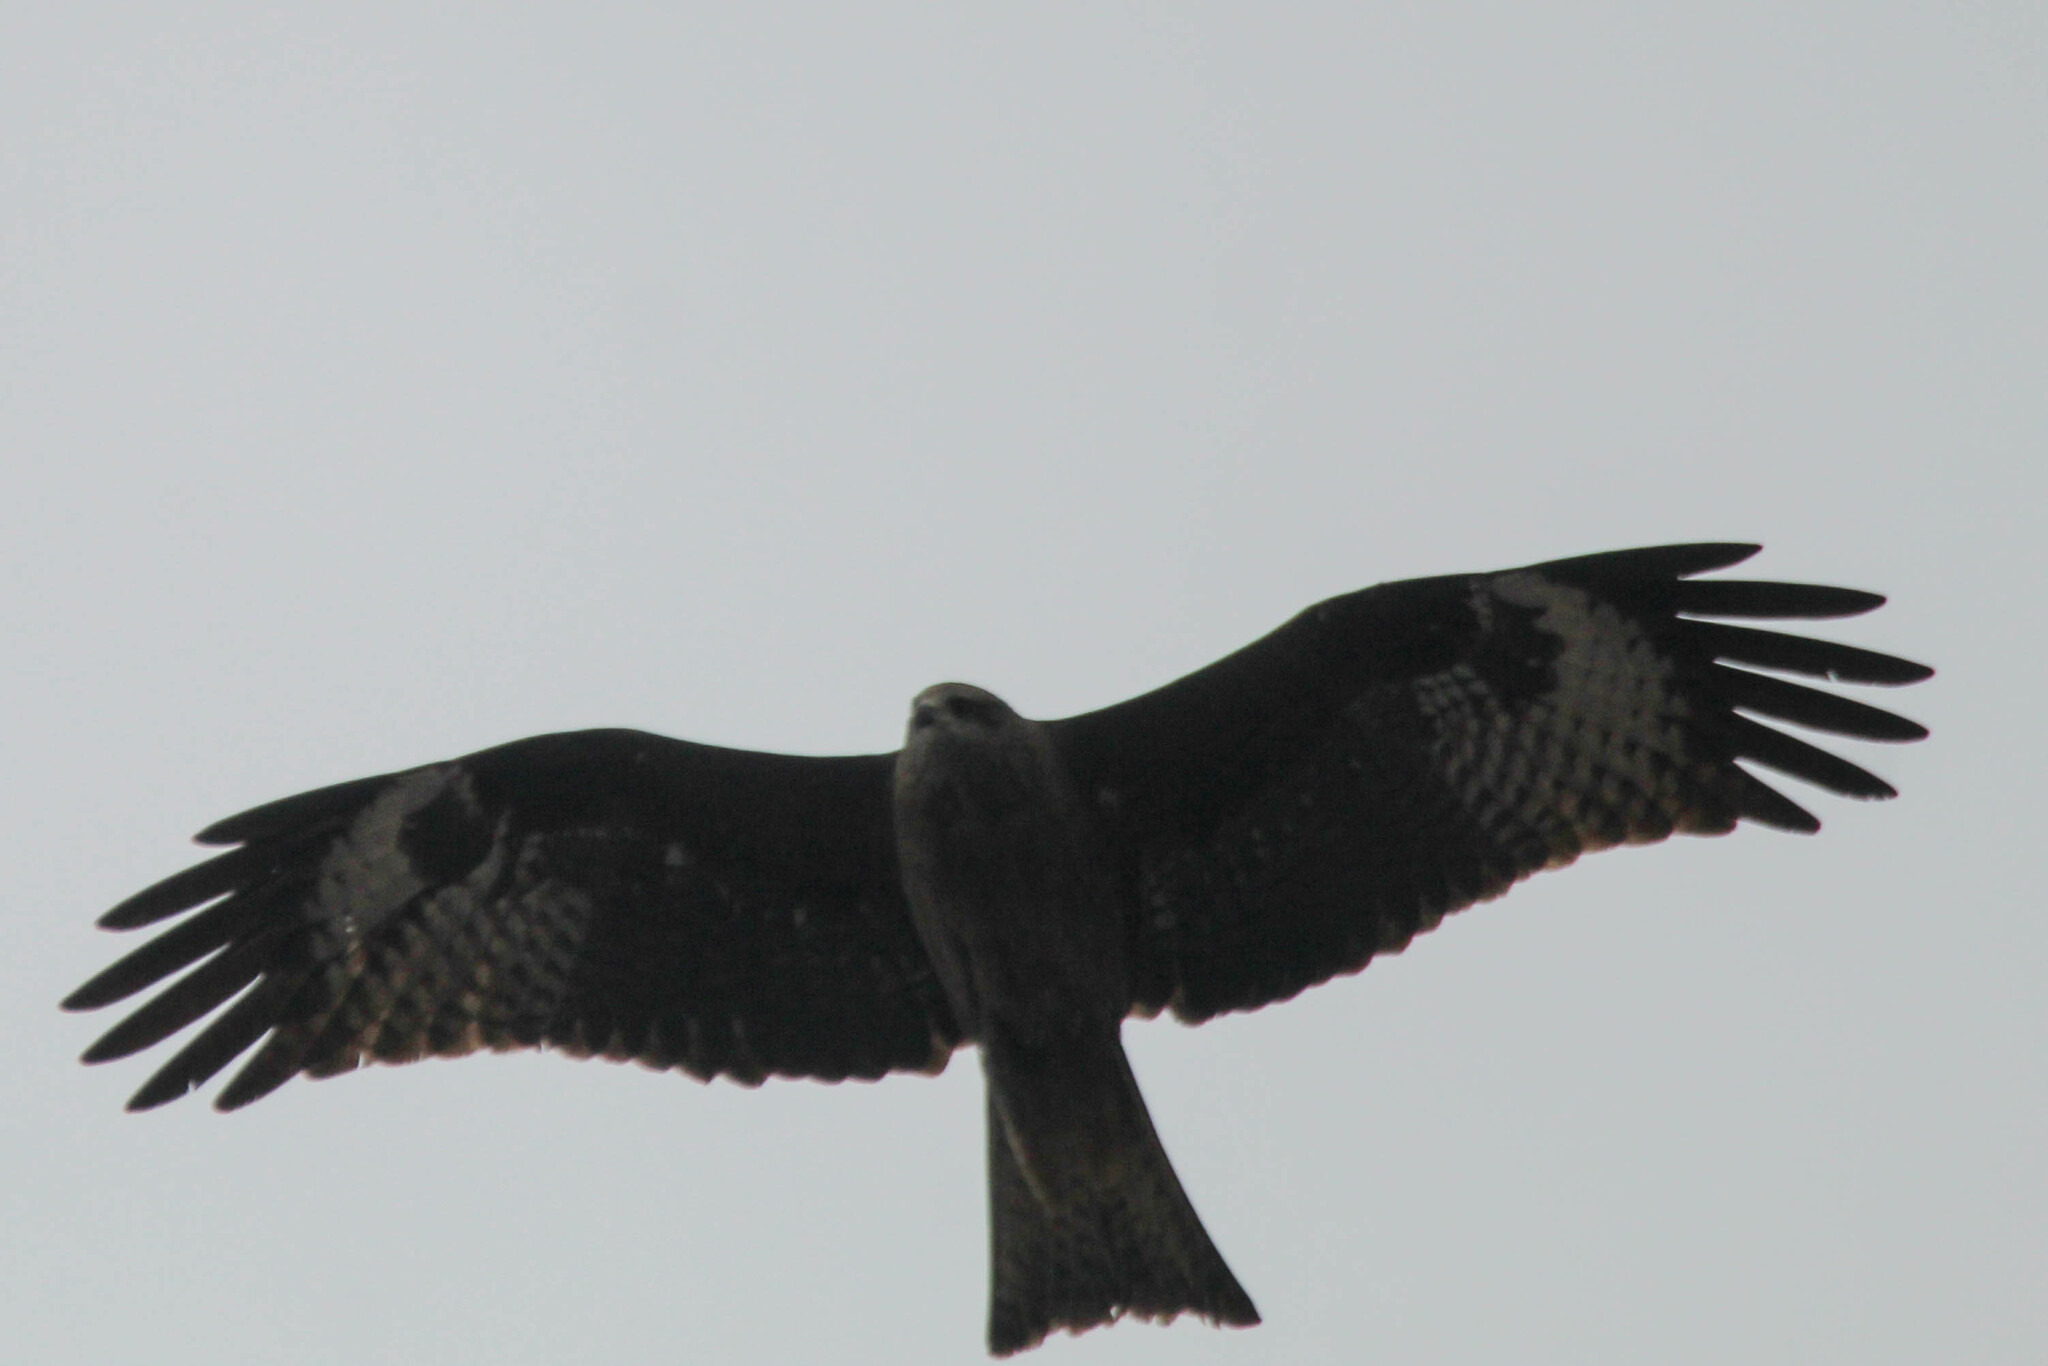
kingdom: Animalia
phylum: Chordata
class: Aves
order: Accipitriformes
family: Accipitridae
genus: Milvus
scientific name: Milvus migrans
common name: Black kite
